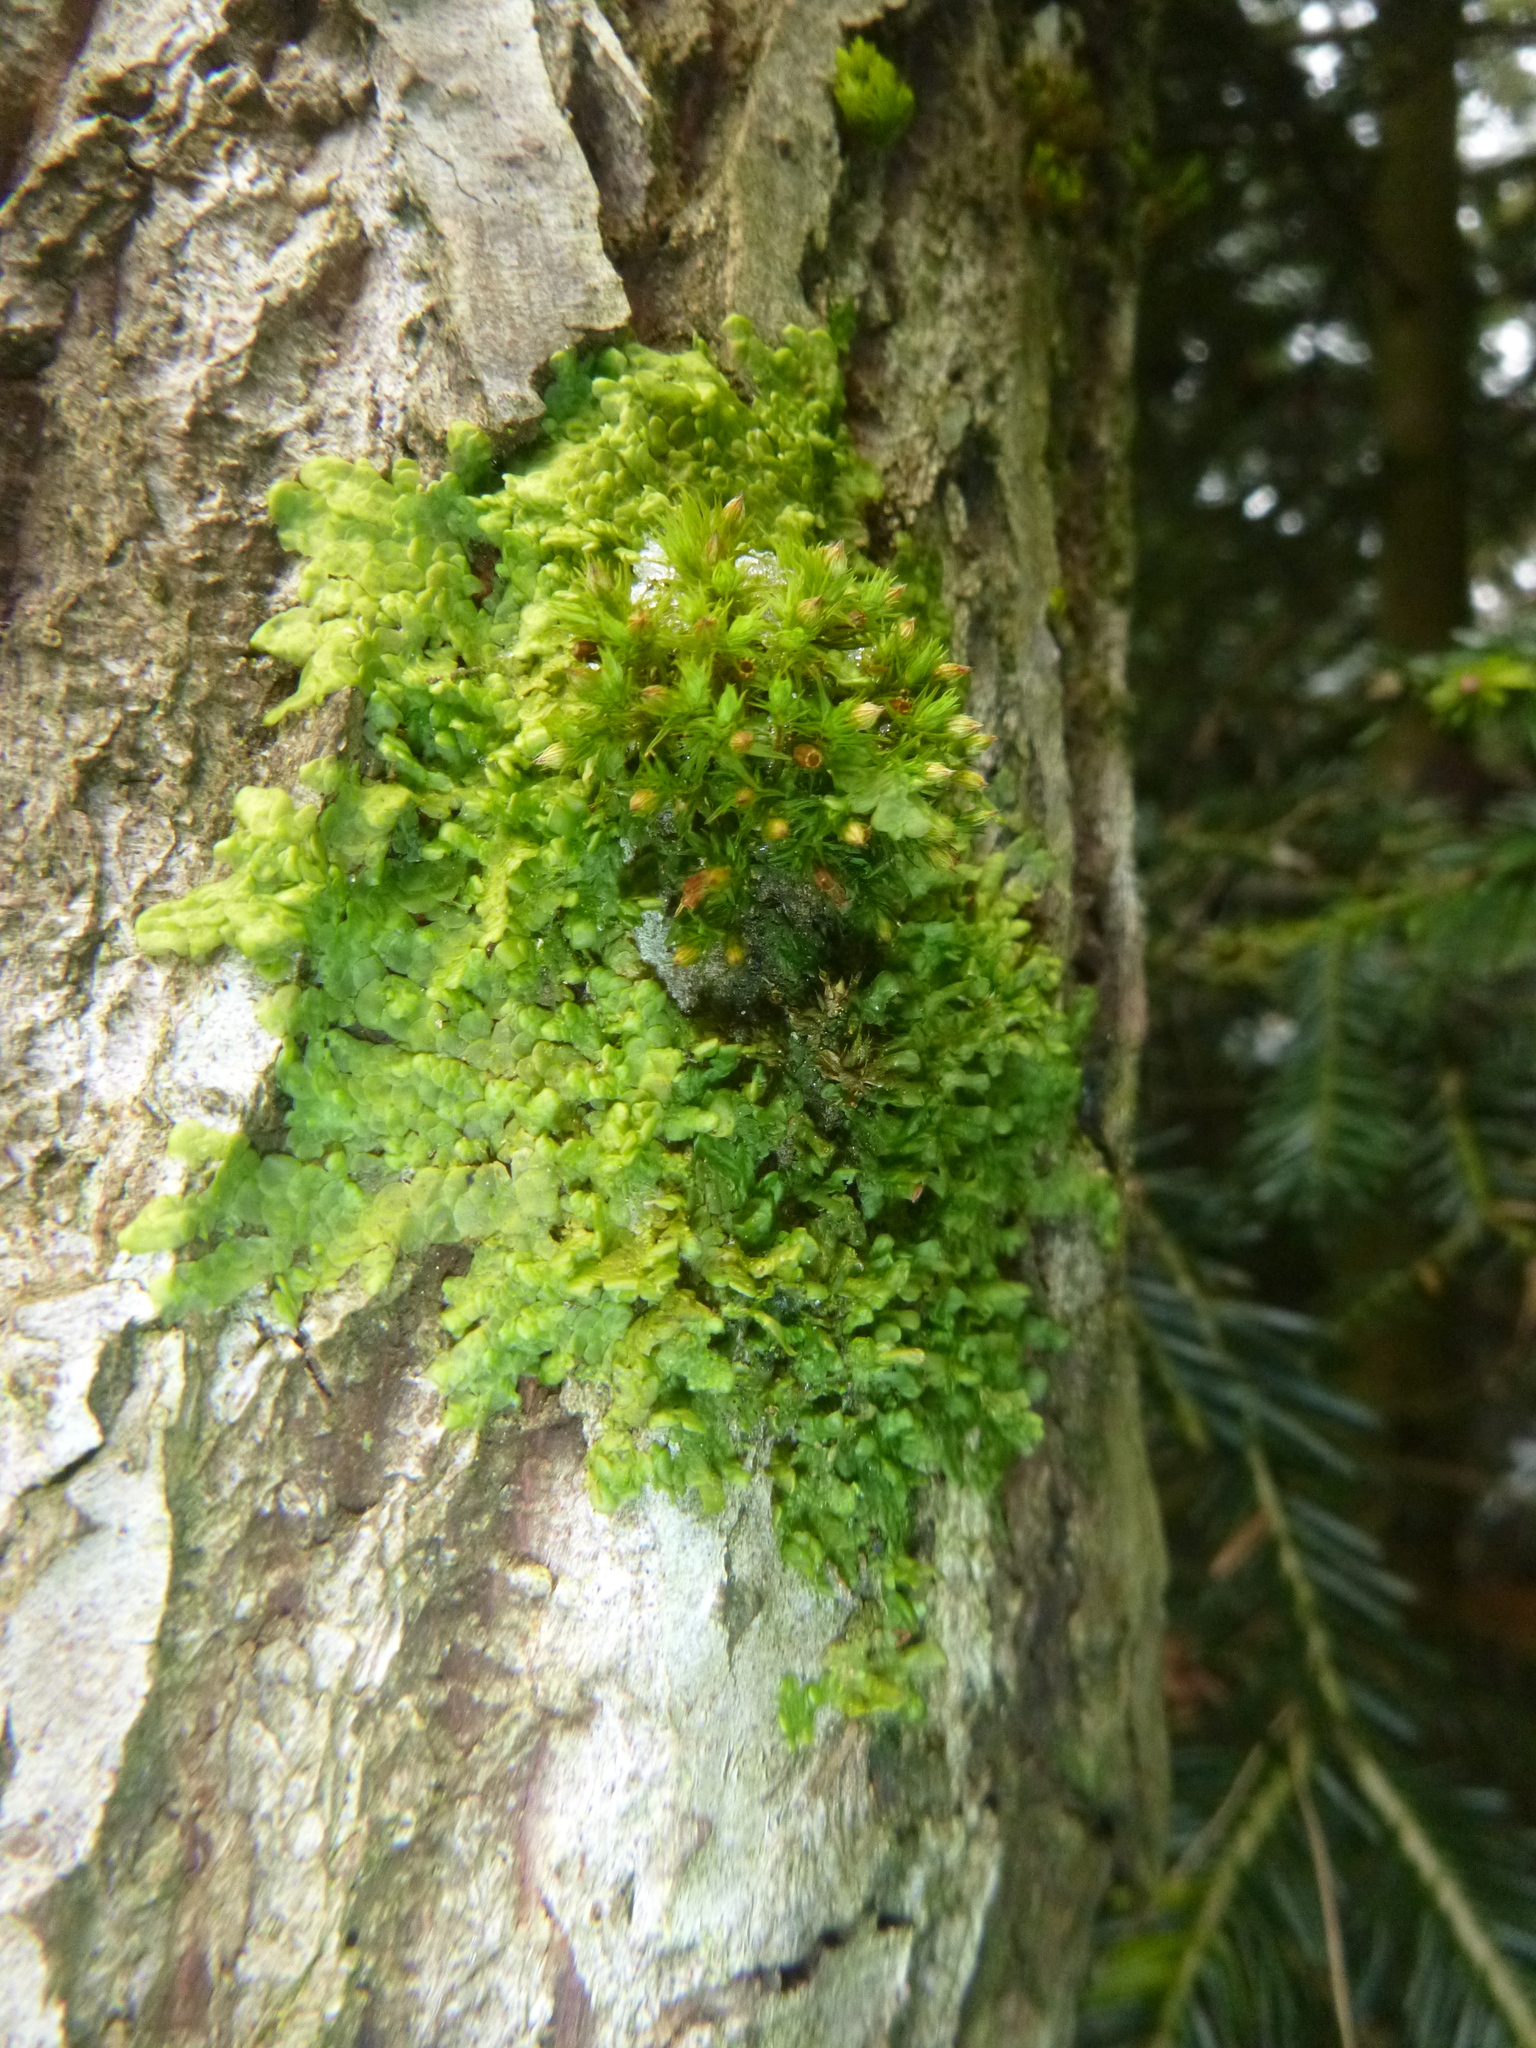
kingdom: Plantae
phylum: Bryophyta
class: Bryopsida
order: Orthotrichales
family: Orthotrichaceae
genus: Orthotrichum
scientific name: Orthotrichum patens
